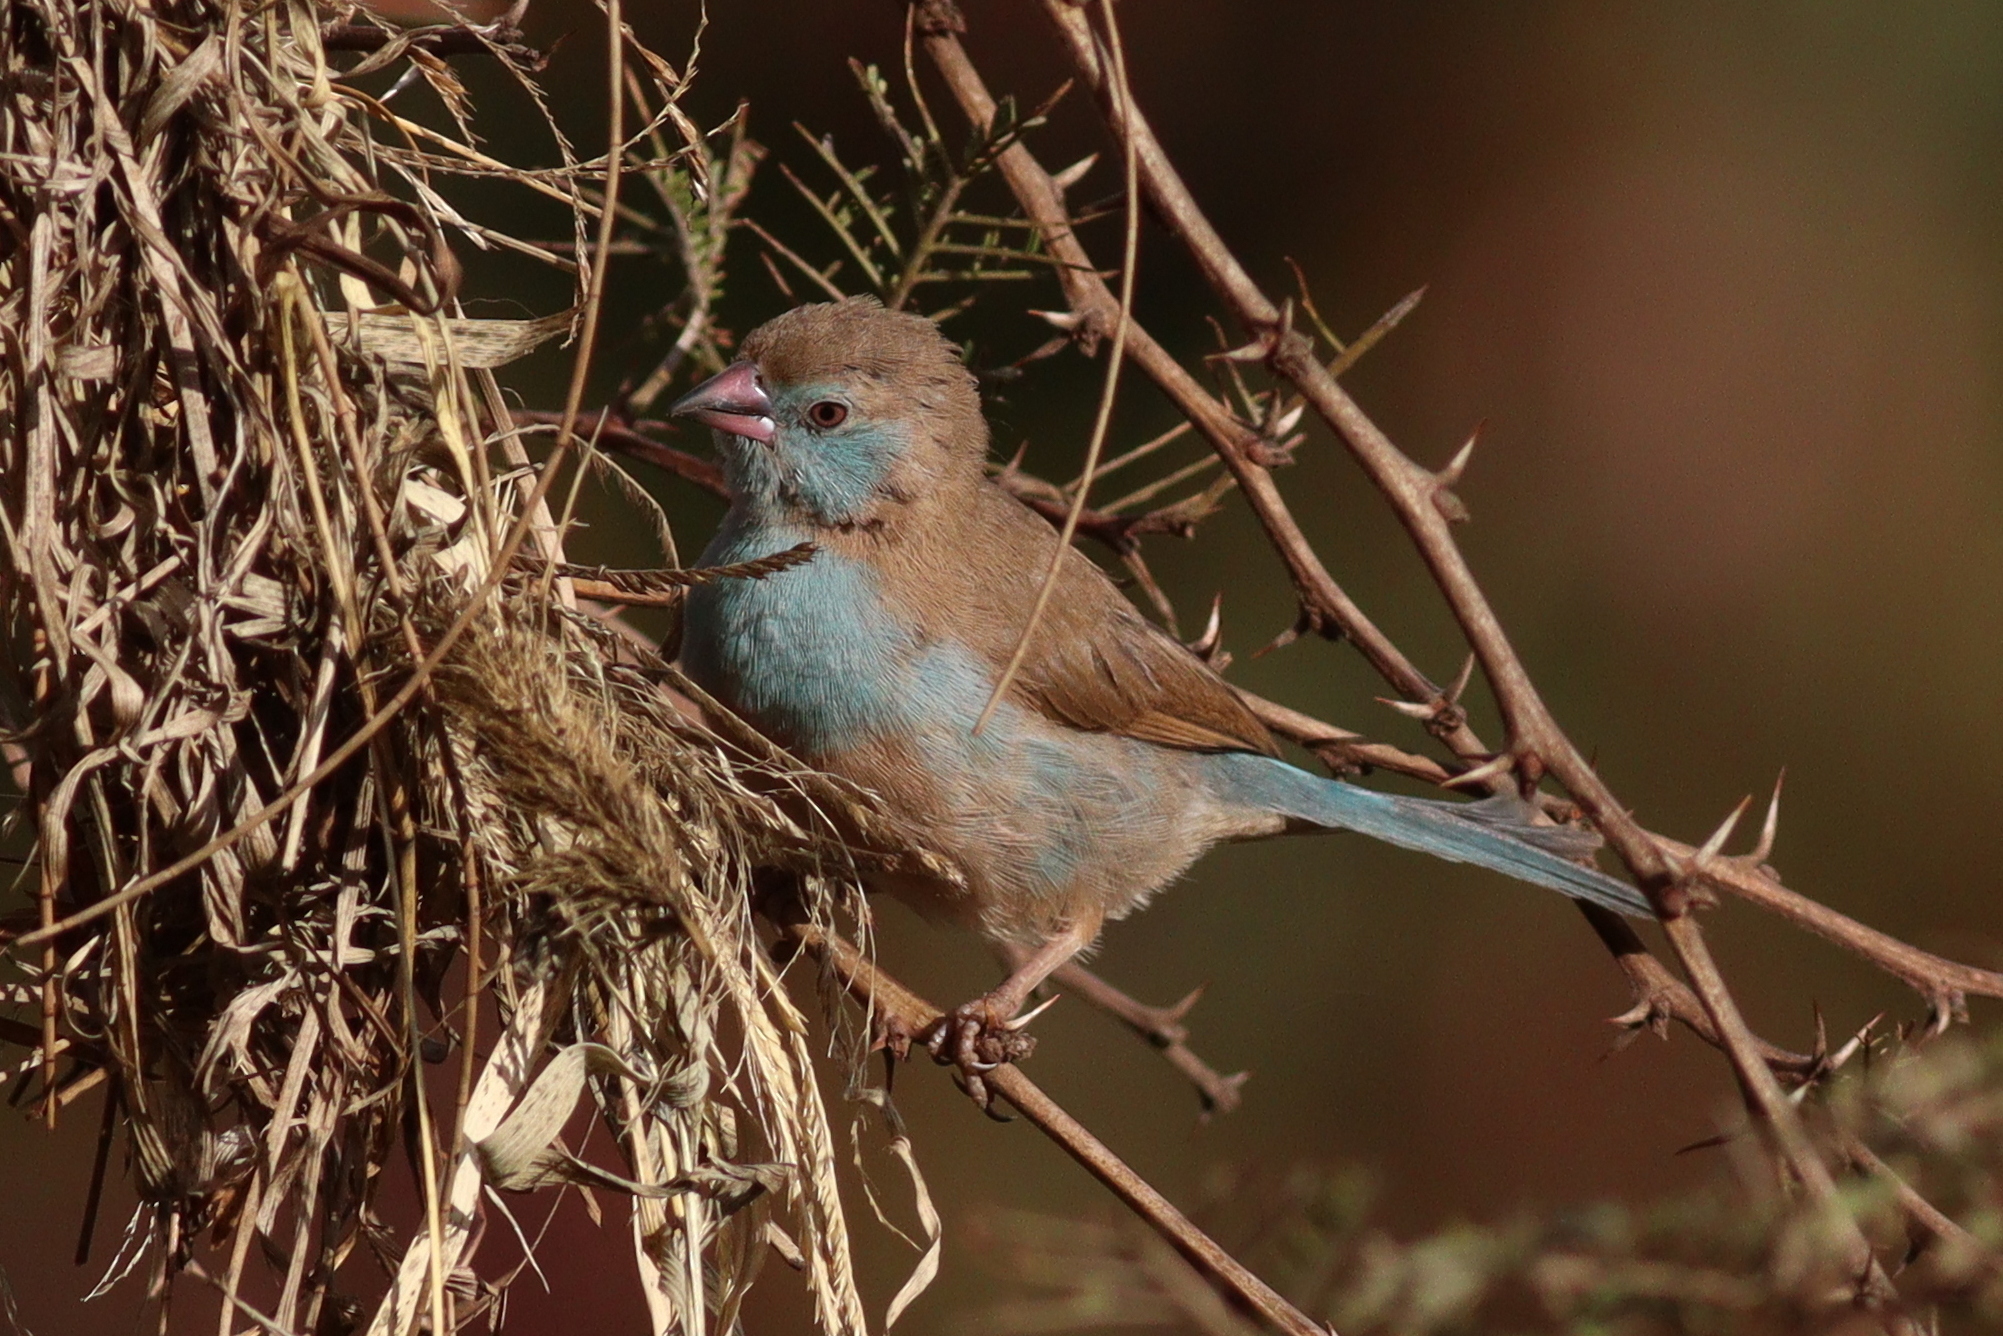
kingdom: Animalia
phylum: Chordata
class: Aves
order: Passeriformes
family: Estrildidae
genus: Uraeginthus
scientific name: Uraeginthus bengalus
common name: Red-cheeked cordon-bleu
